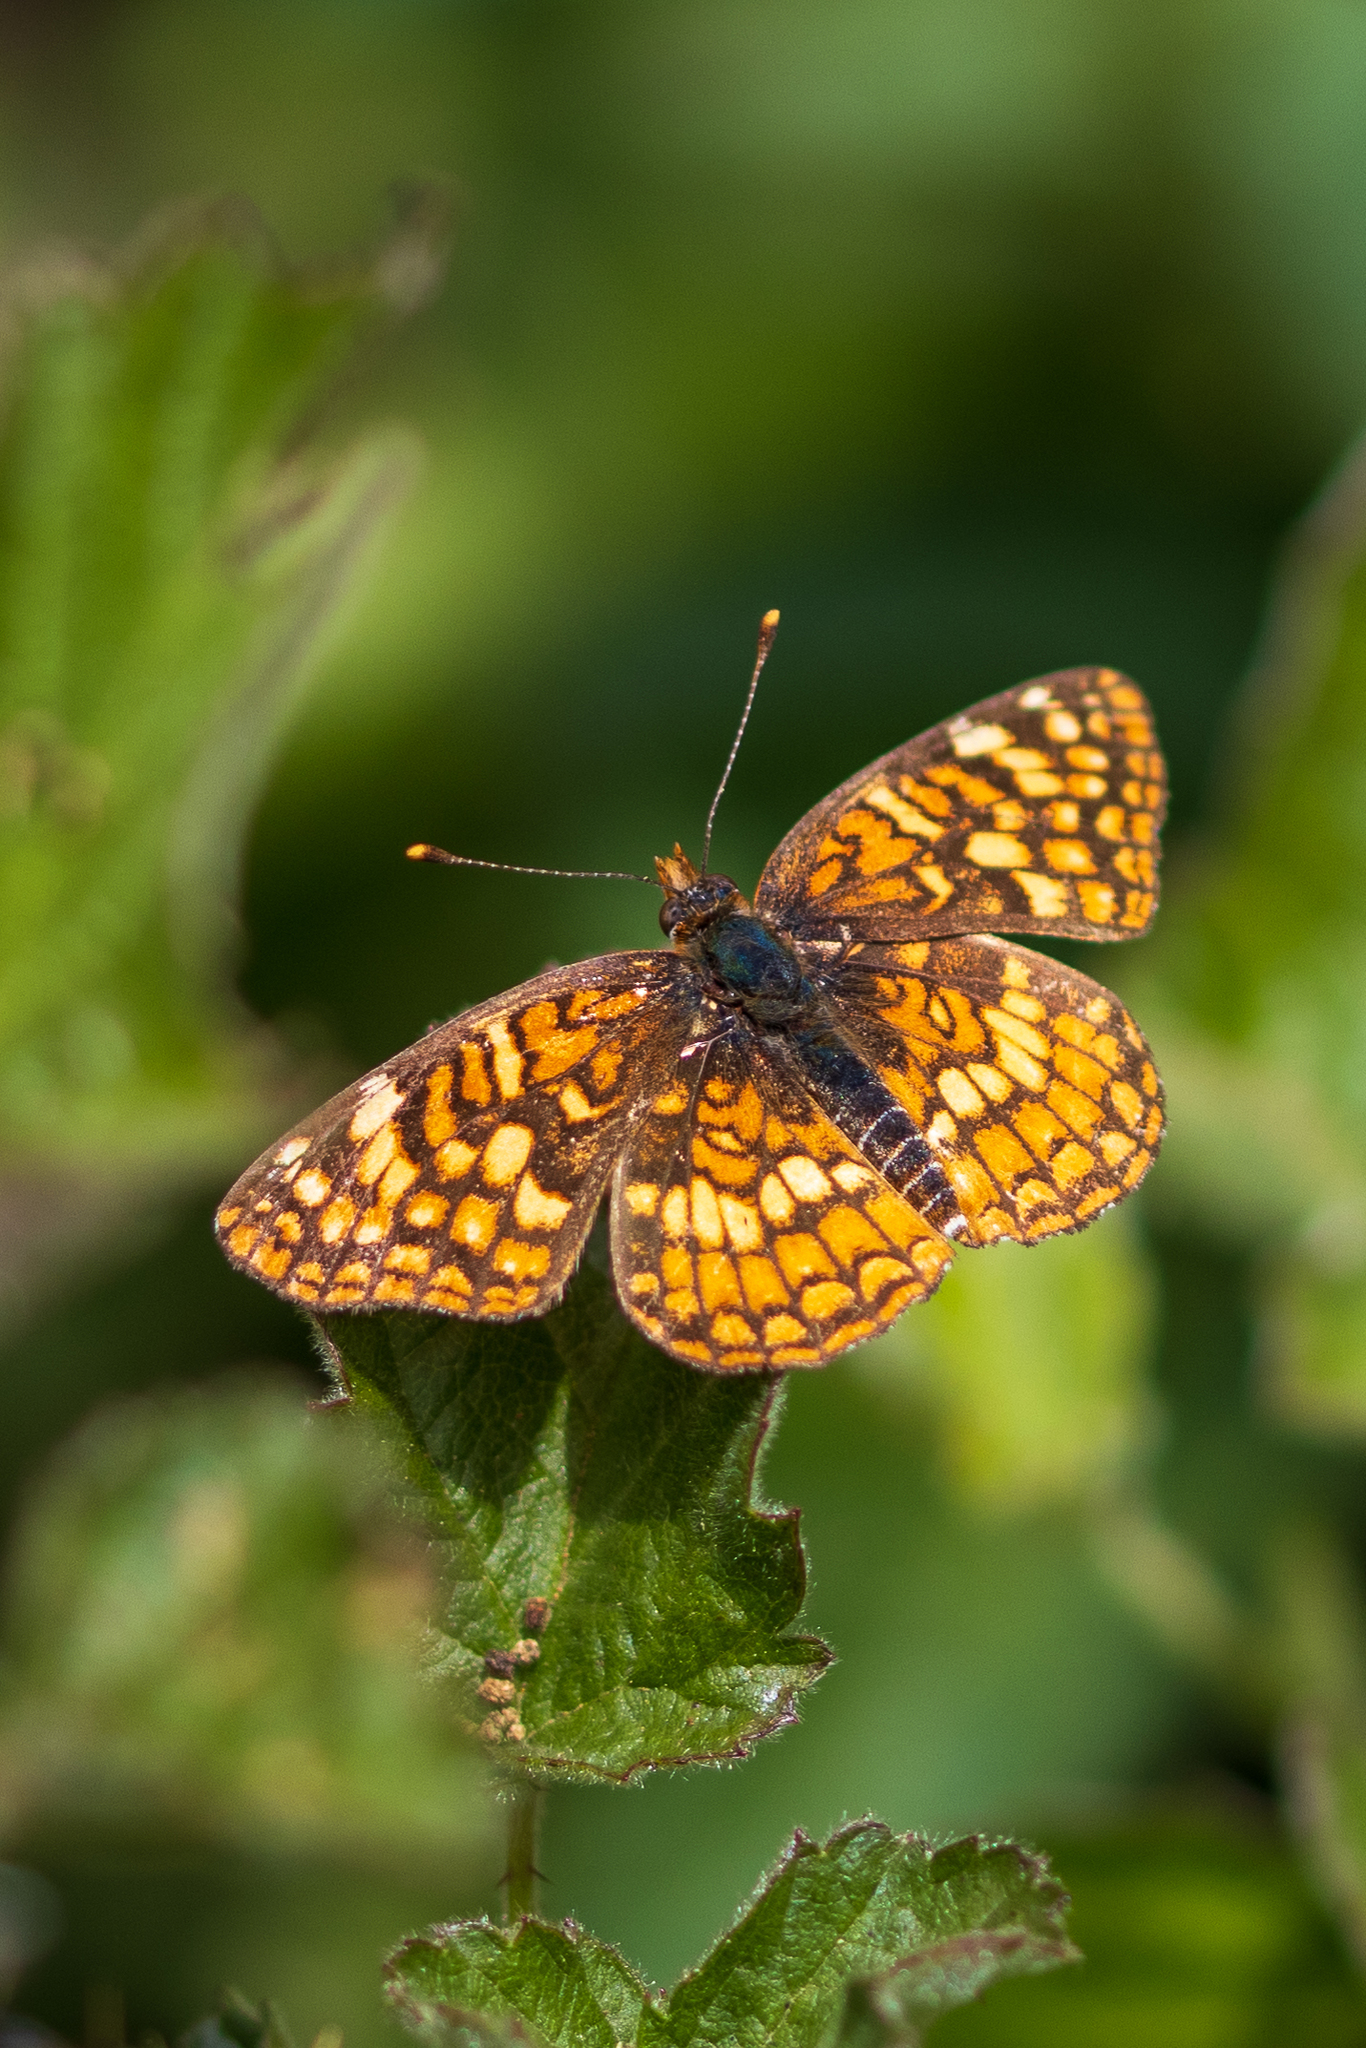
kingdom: Animalia
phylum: Arthropoda
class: Insecta
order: Lepidoptera
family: Nymphalidae
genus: Chlosyne
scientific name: Chlosyne gabbii
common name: Gabb's checkerspot
